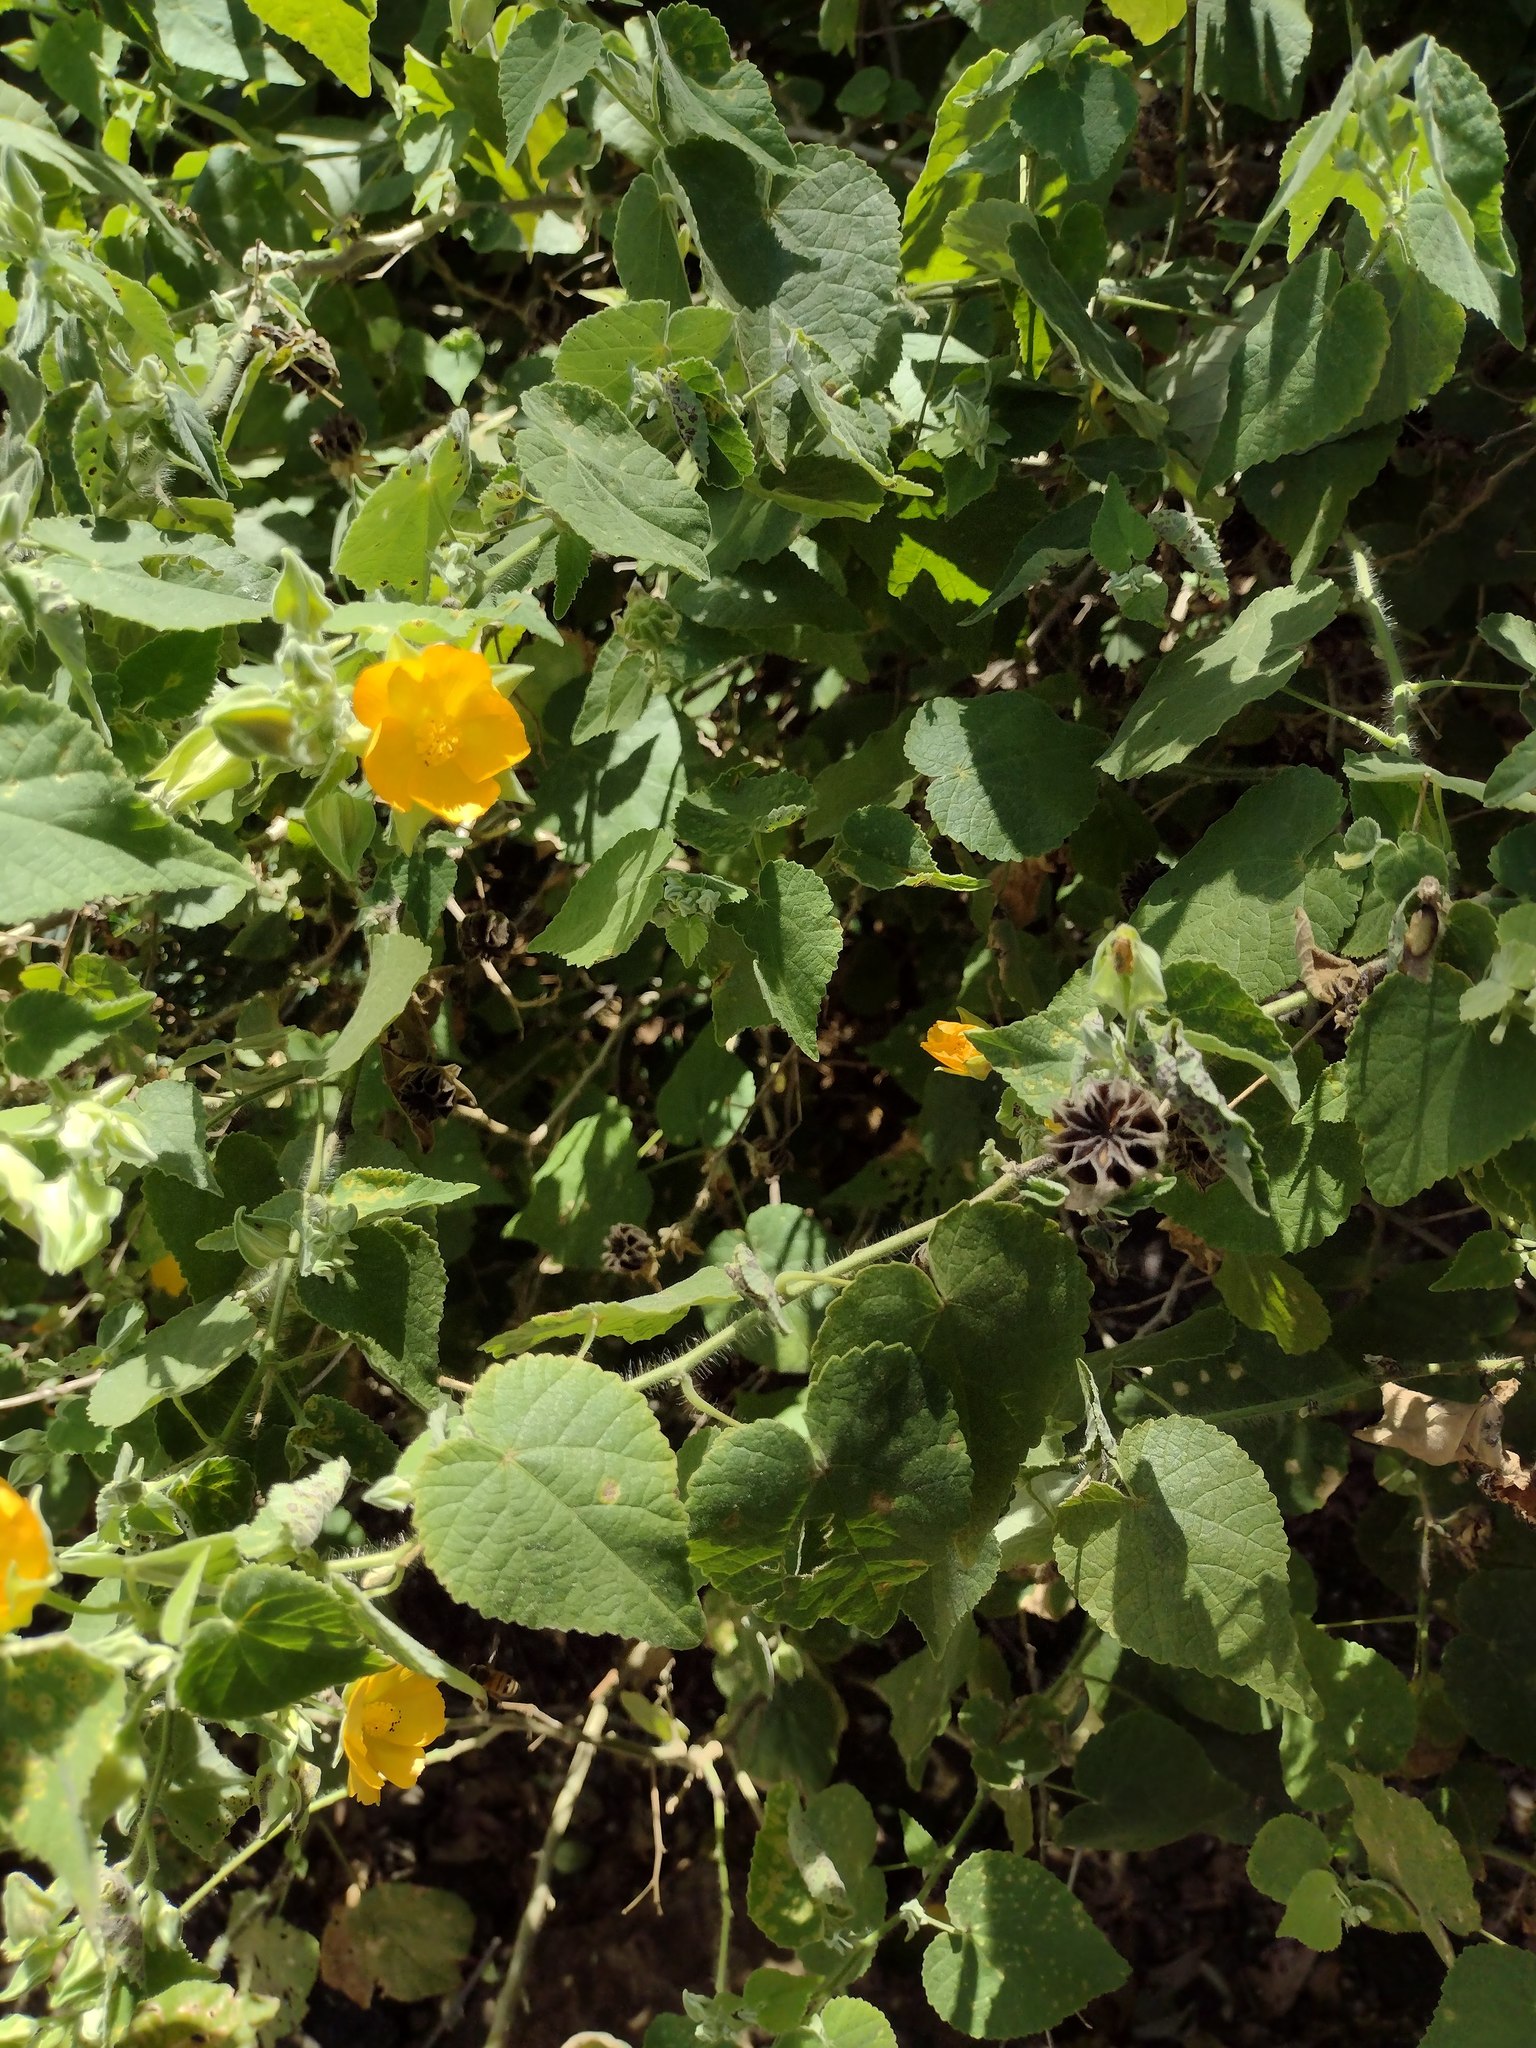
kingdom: Plantae
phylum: Tracheophyta
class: Magnoliopsida
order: Malvales
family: Malvaceae
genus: Abutilon
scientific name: Abutilon grandifolium
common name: Hairy abutilon
